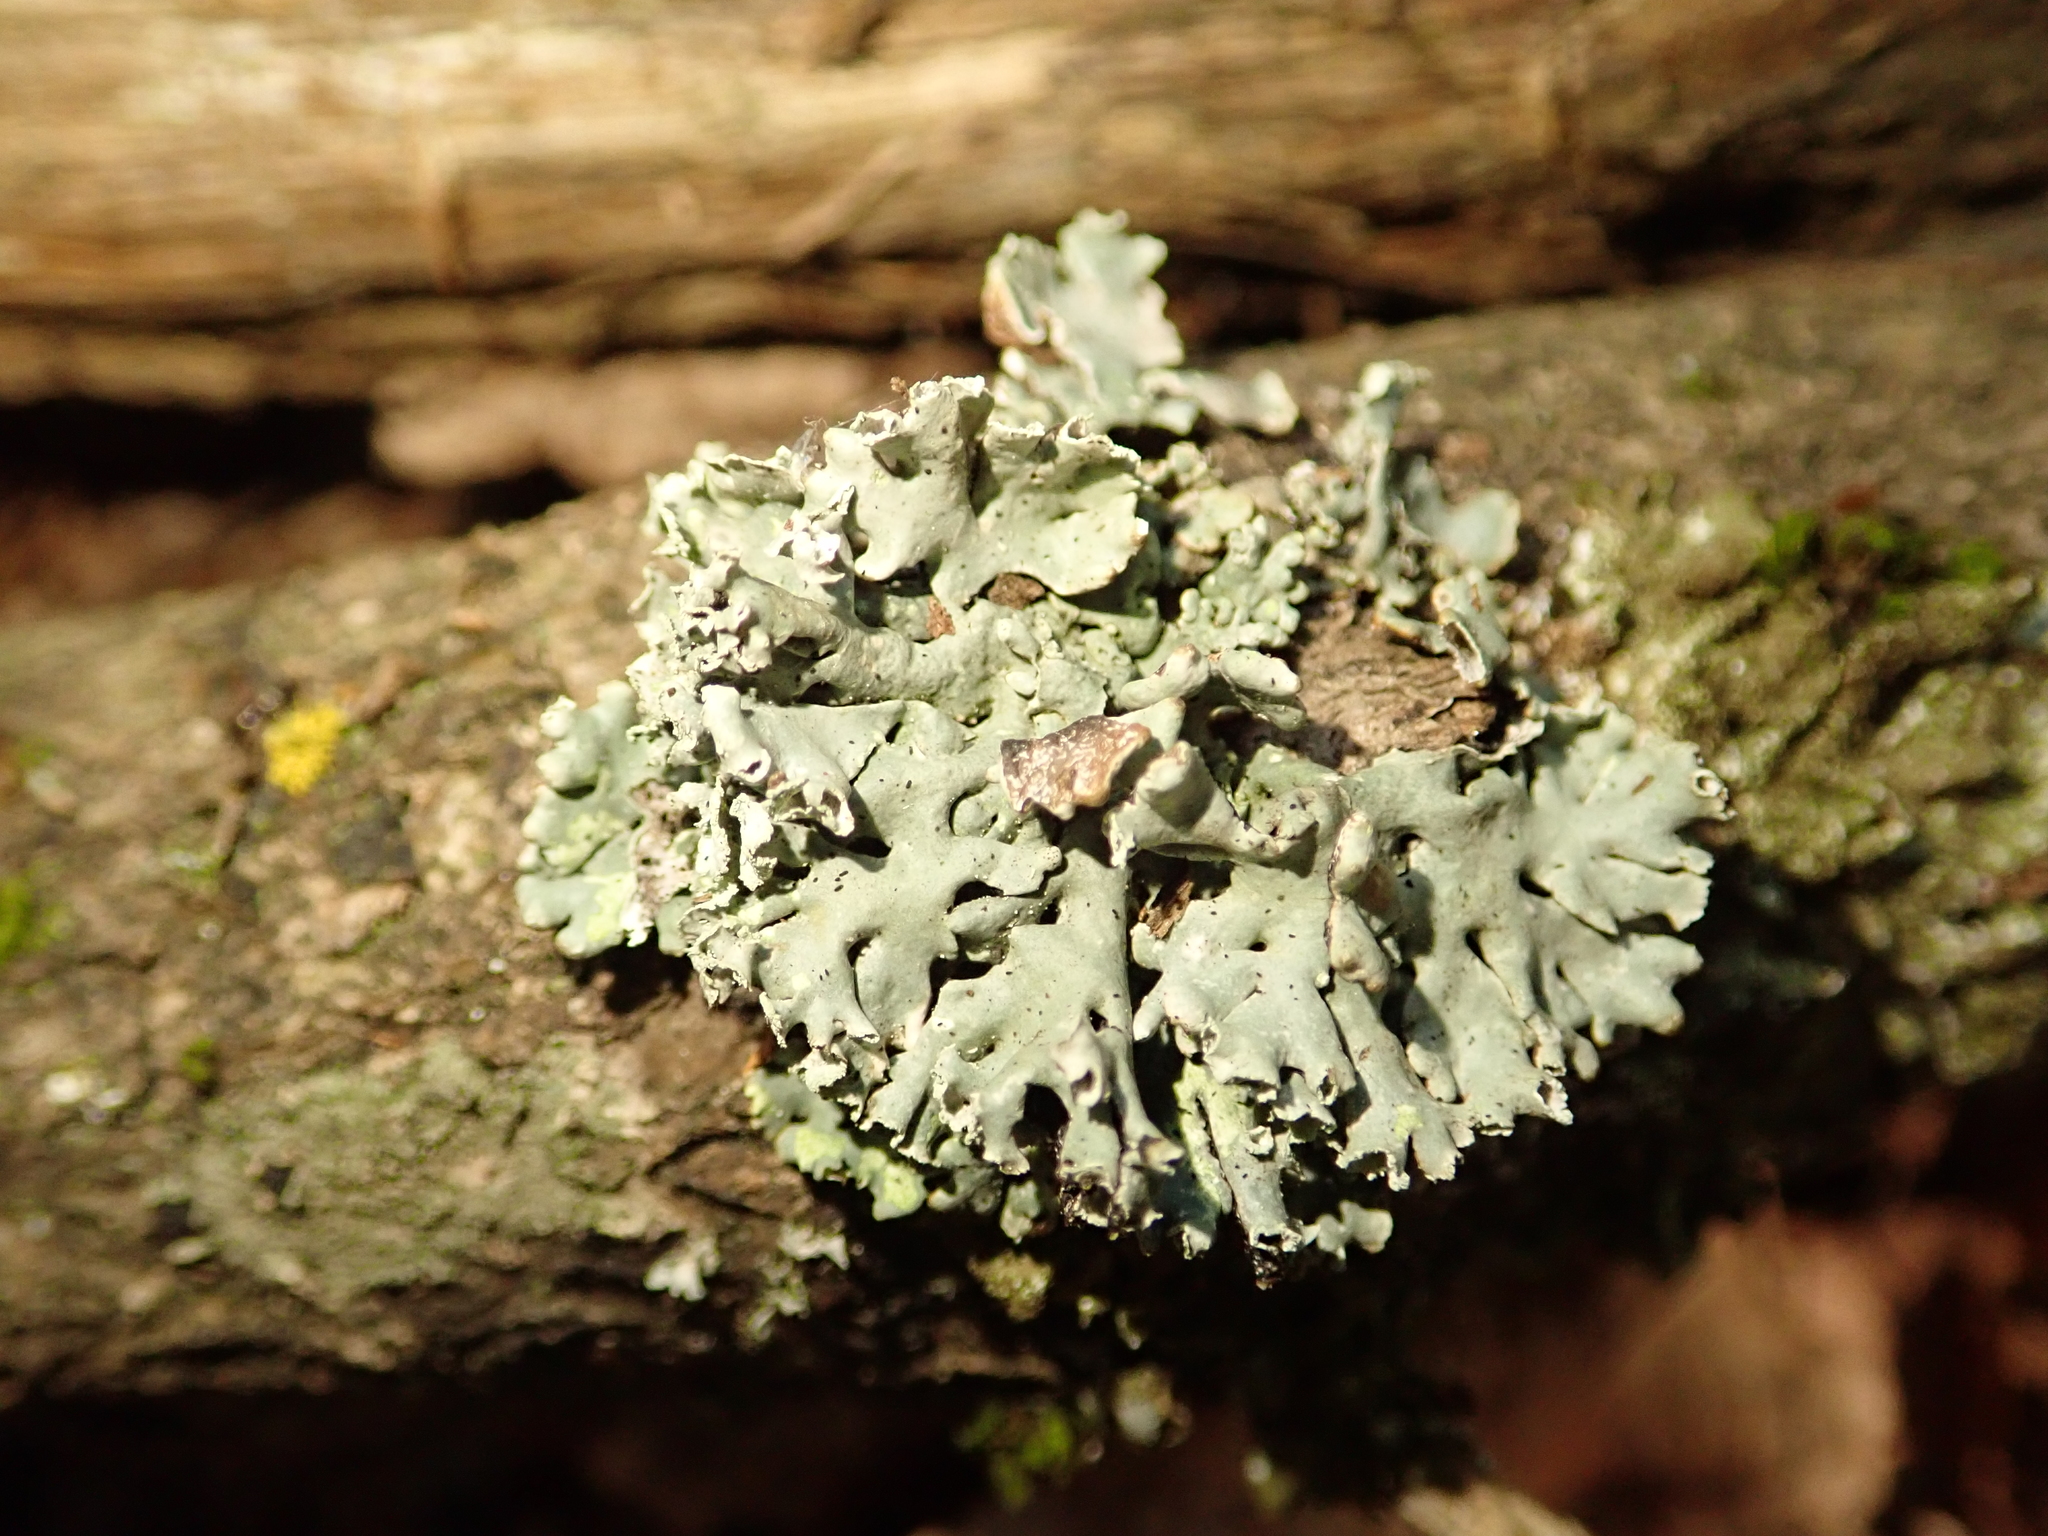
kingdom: Fungi
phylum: Ascomycota
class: Lecanoromycetes
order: Lecanorales
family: Parmeliaceae
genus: Hypogymnia
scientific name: Hypogymnia physodes
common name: Dark crottle
